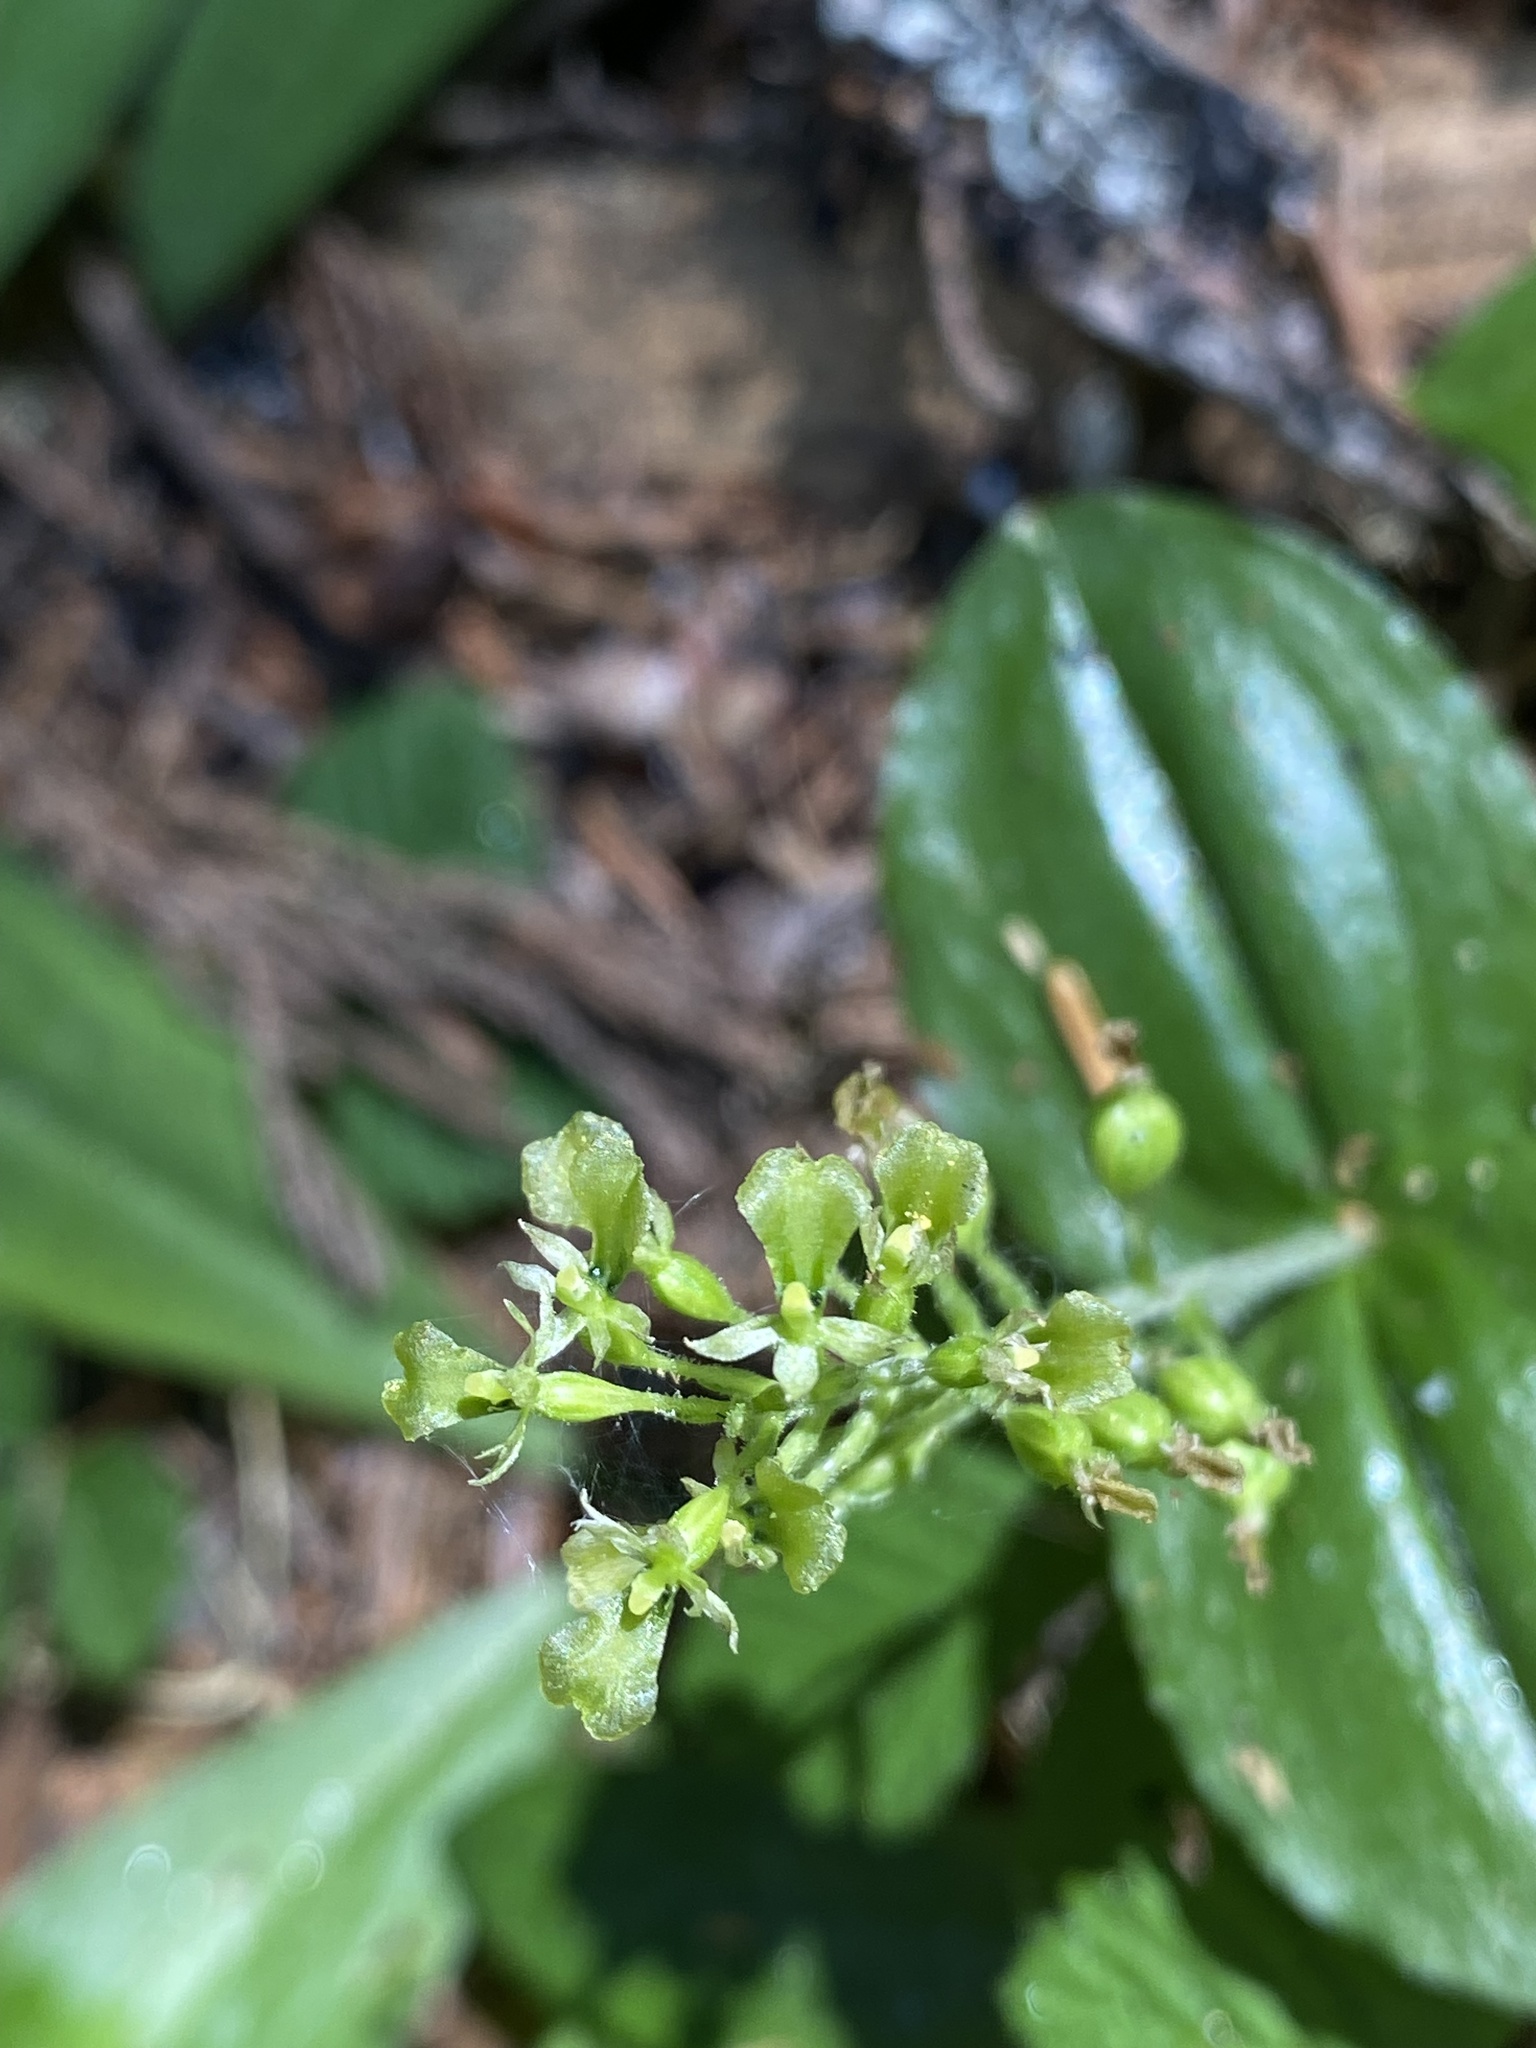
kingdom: Plantae
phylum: Tracheophyta
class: Liliopsida
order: Asparagales
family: Orchidaceae
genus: Neottia
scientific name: Neottia banksiana
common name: Northwestern twayblade
